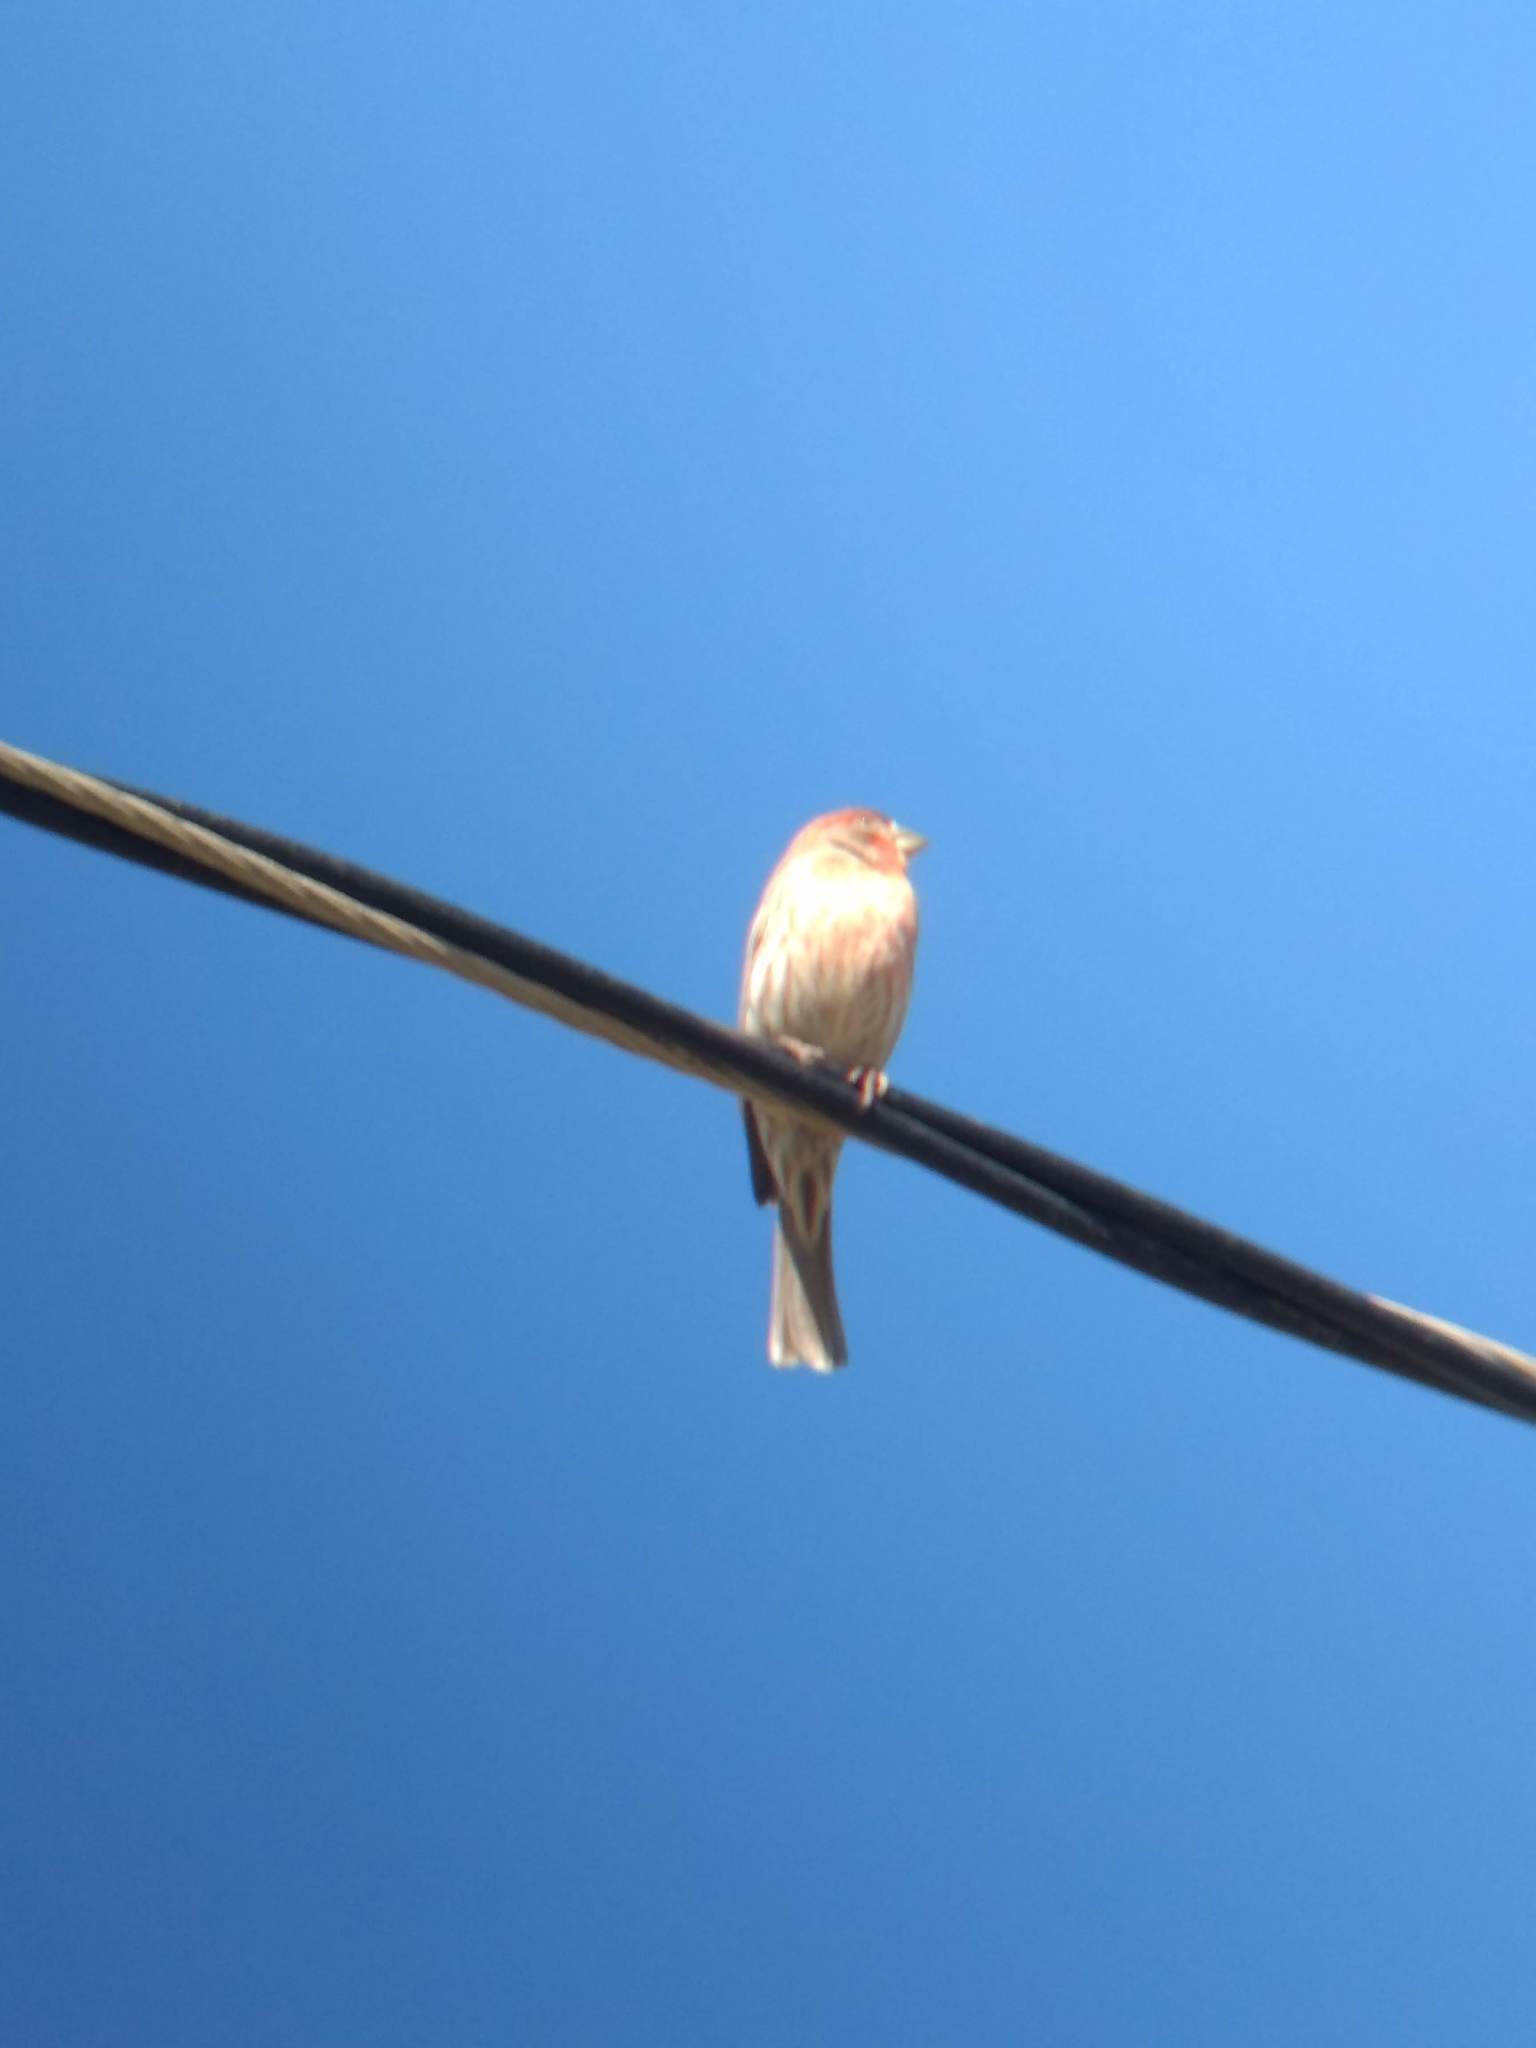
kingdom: Animalia
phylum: Chordata
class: Aves
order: Passeriformes
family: Fringillidae
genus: Haemorhous
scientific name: Haemorhous mexicanus
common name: House finch
